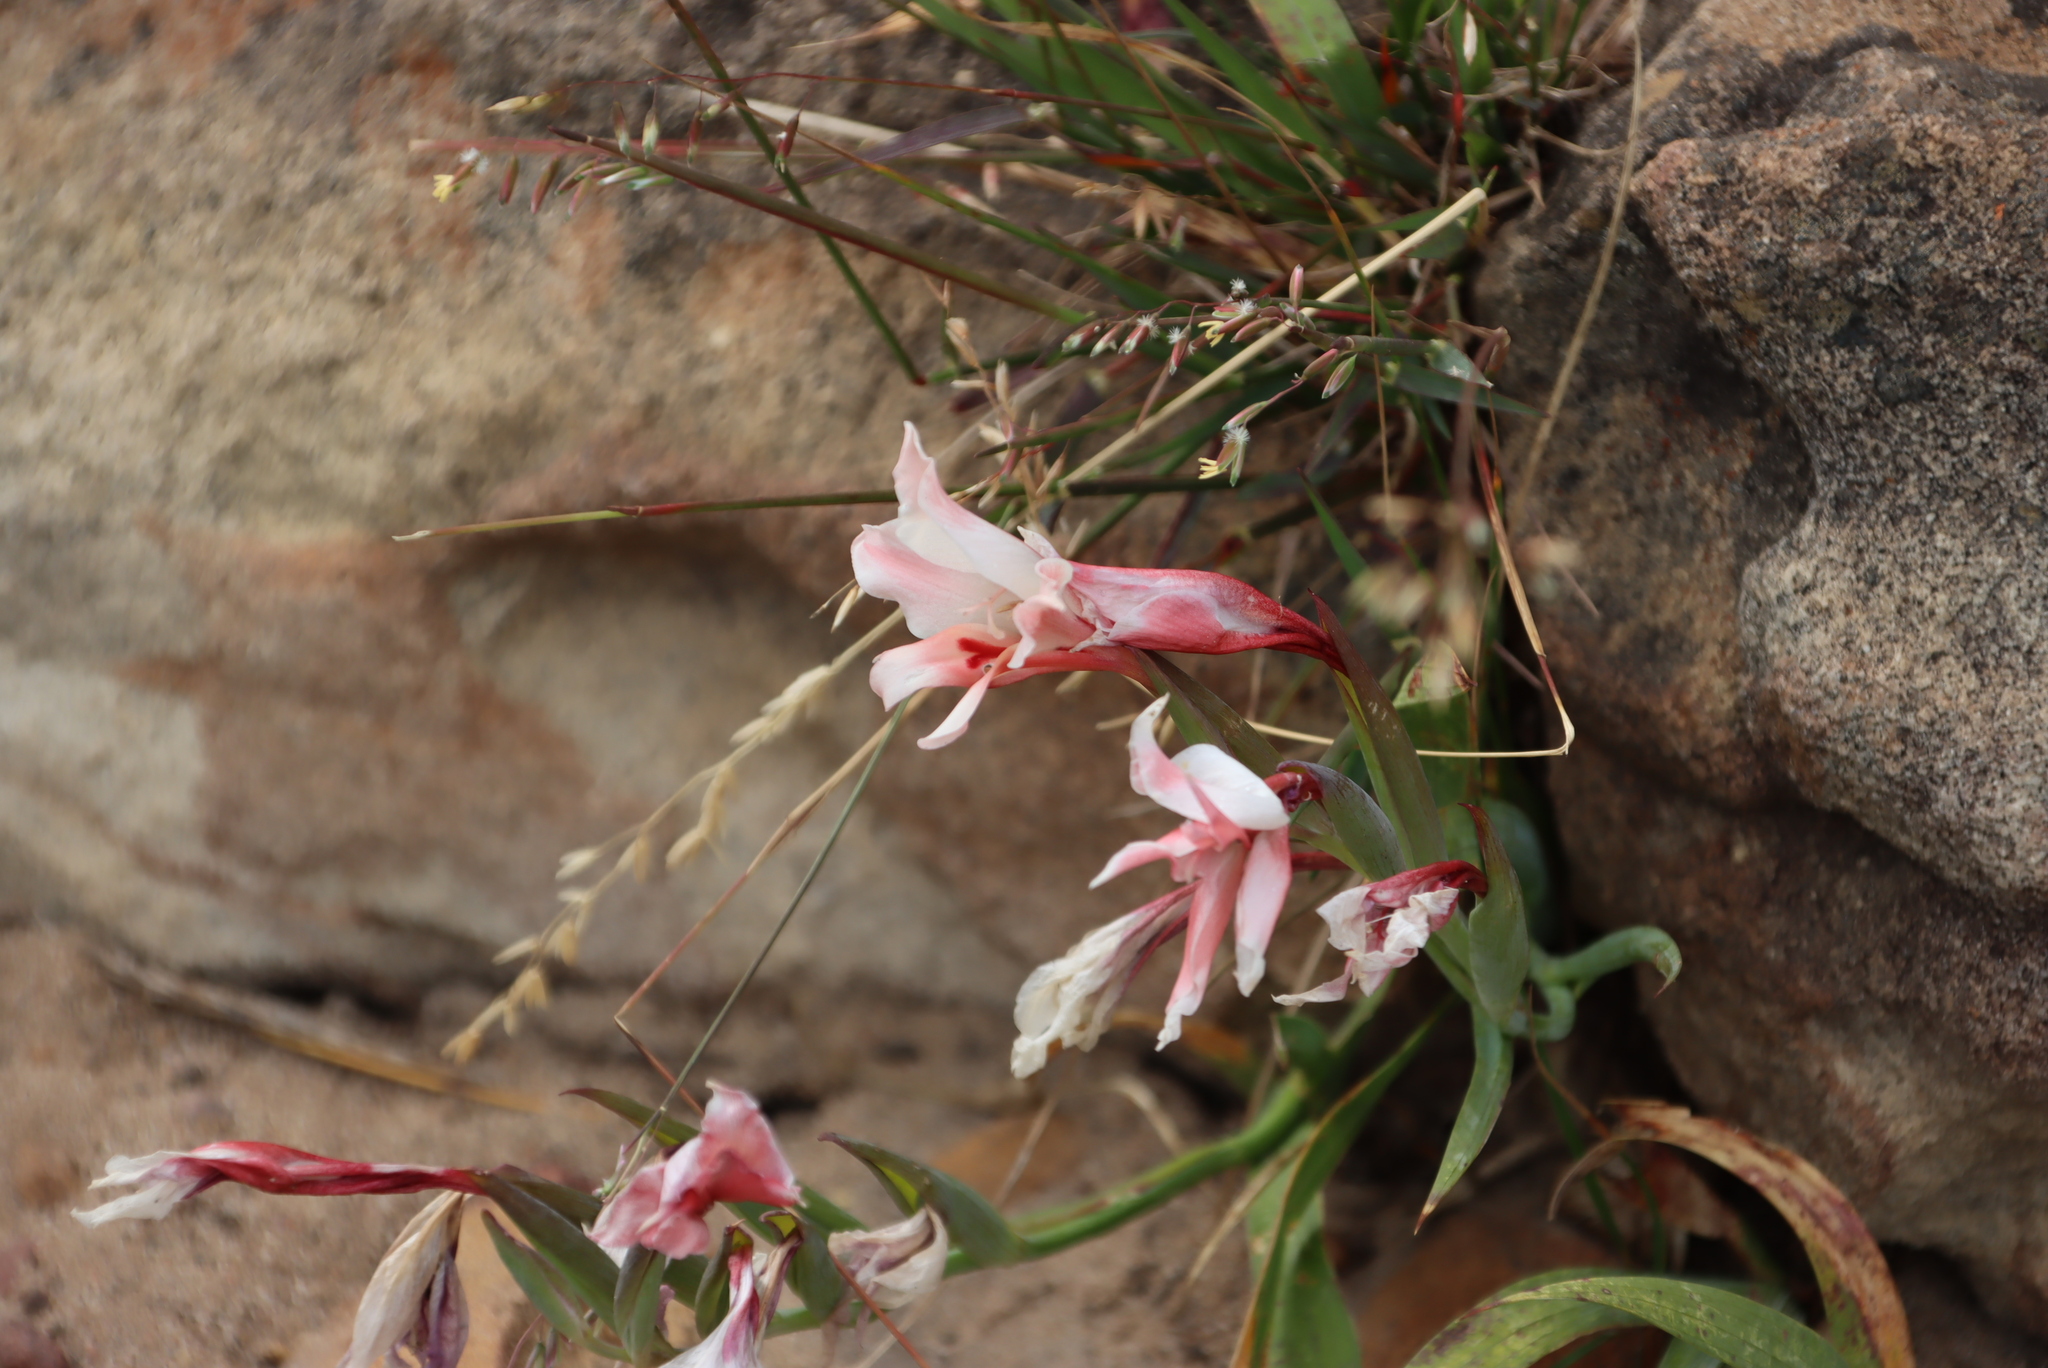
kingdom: Plantae
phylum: Tracheophyta
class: Liliopsida
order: Asparagales
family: Iridaceae
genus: Gladiolus
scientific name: Gladiolus carneus
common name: Painted-lady
